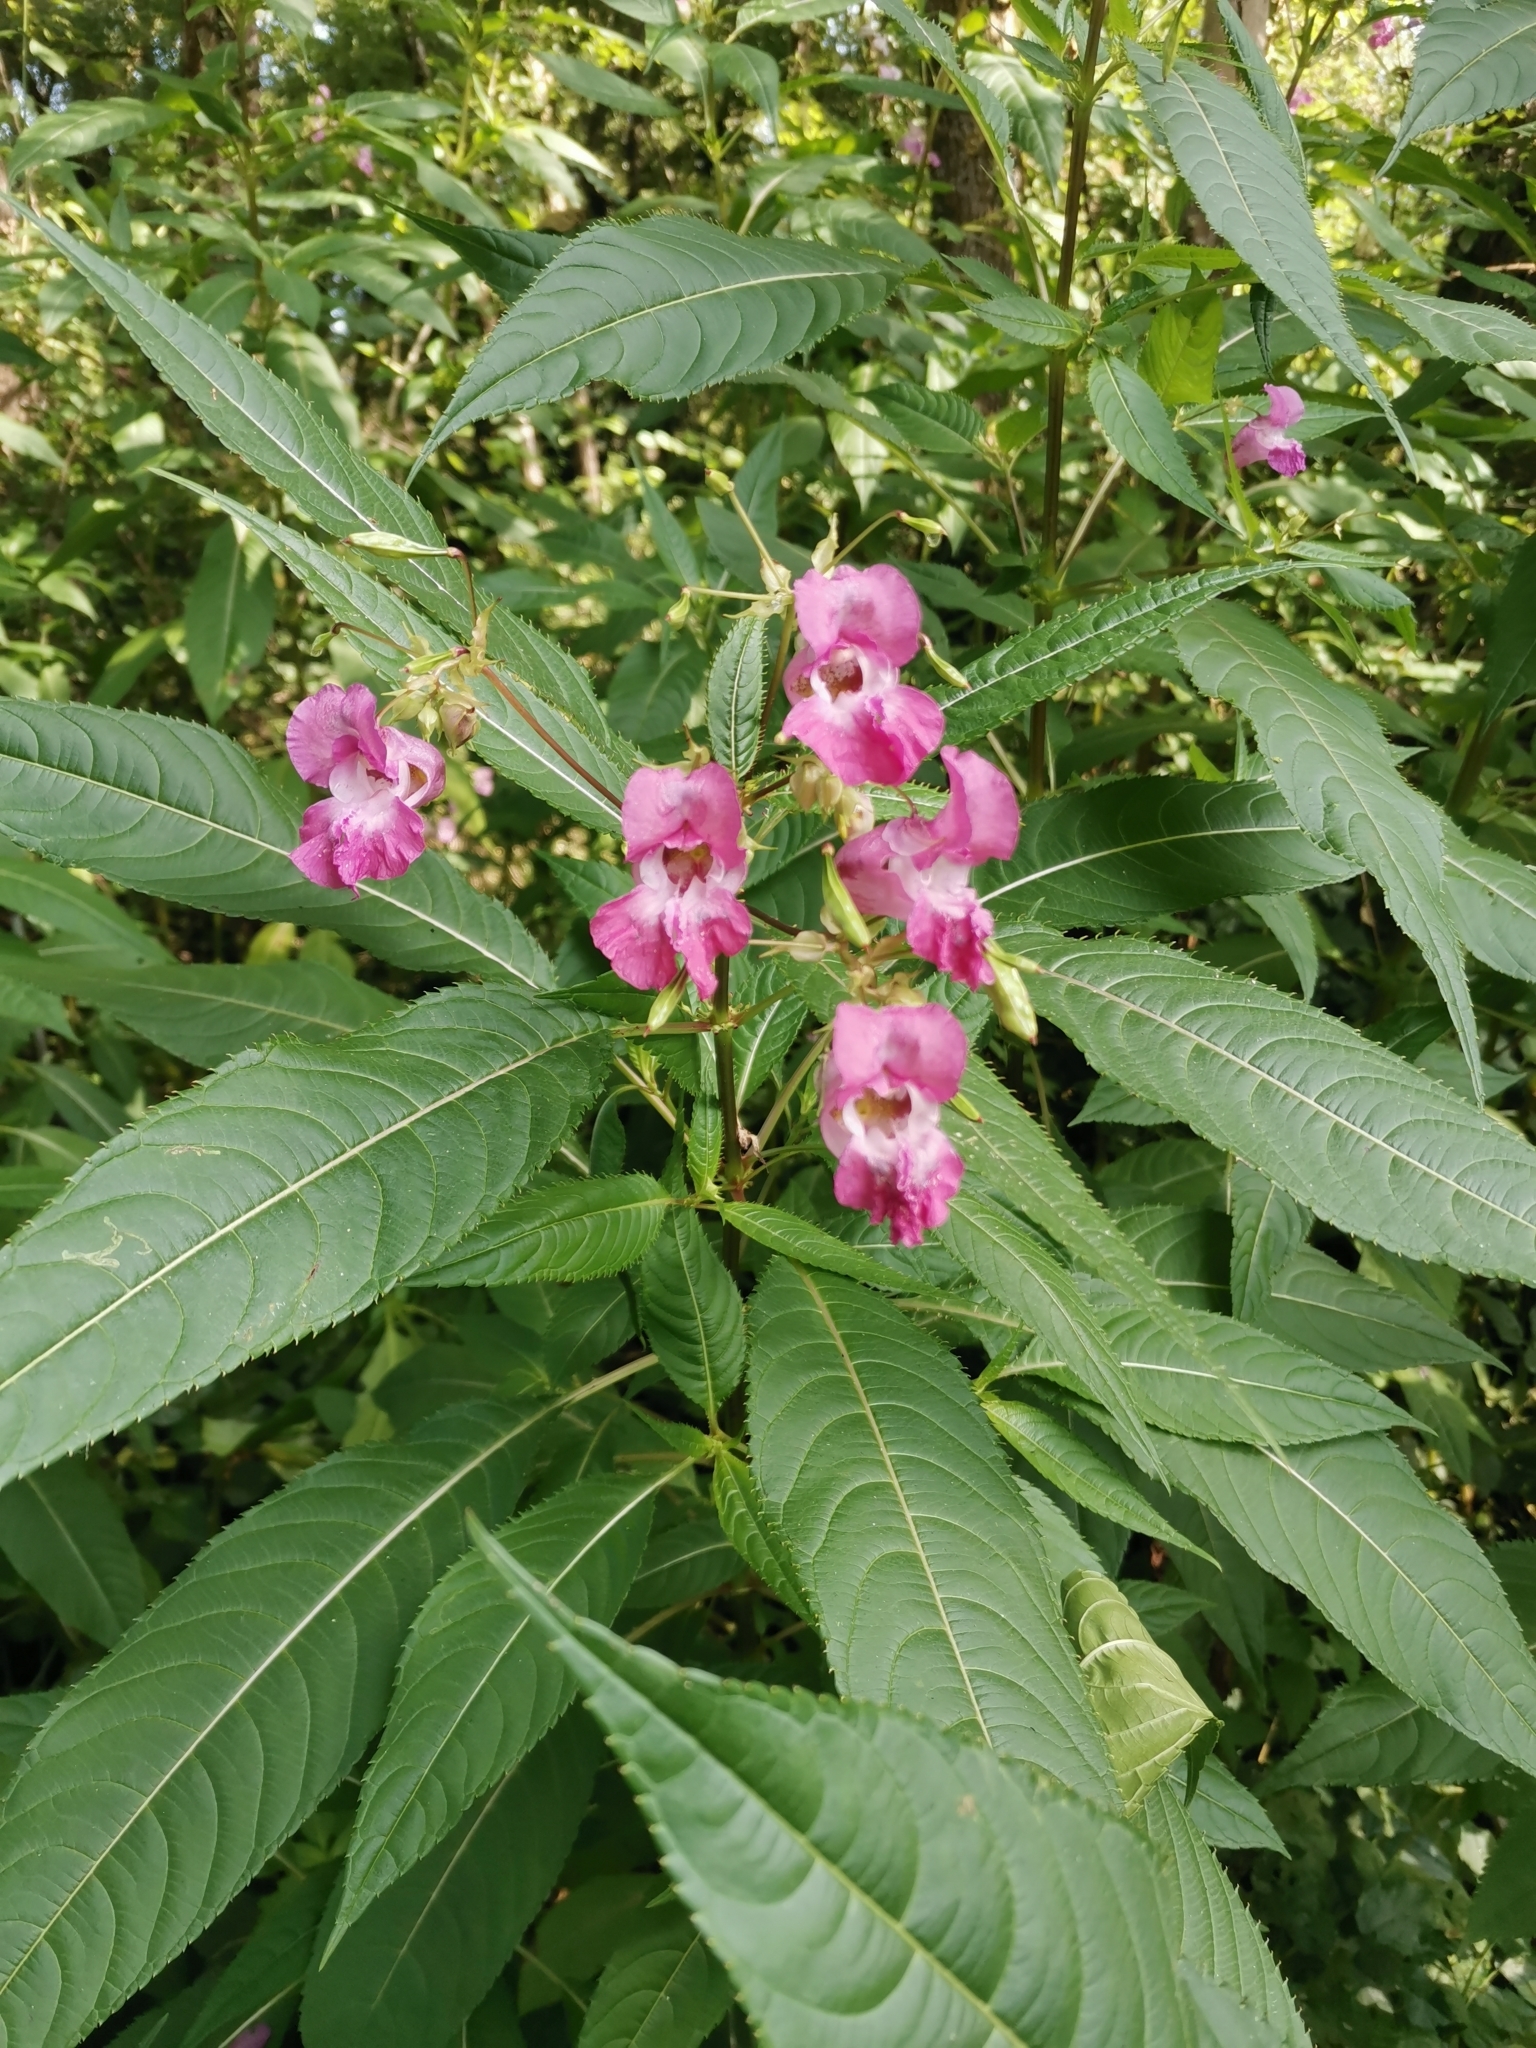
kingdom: Plantae
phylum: Tracheophyta
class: Magnoliopsida
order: Ericales
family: Balsaminaceae
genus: Impatiens
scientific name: Impatiens glandulifera
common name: Himalayan balsam
